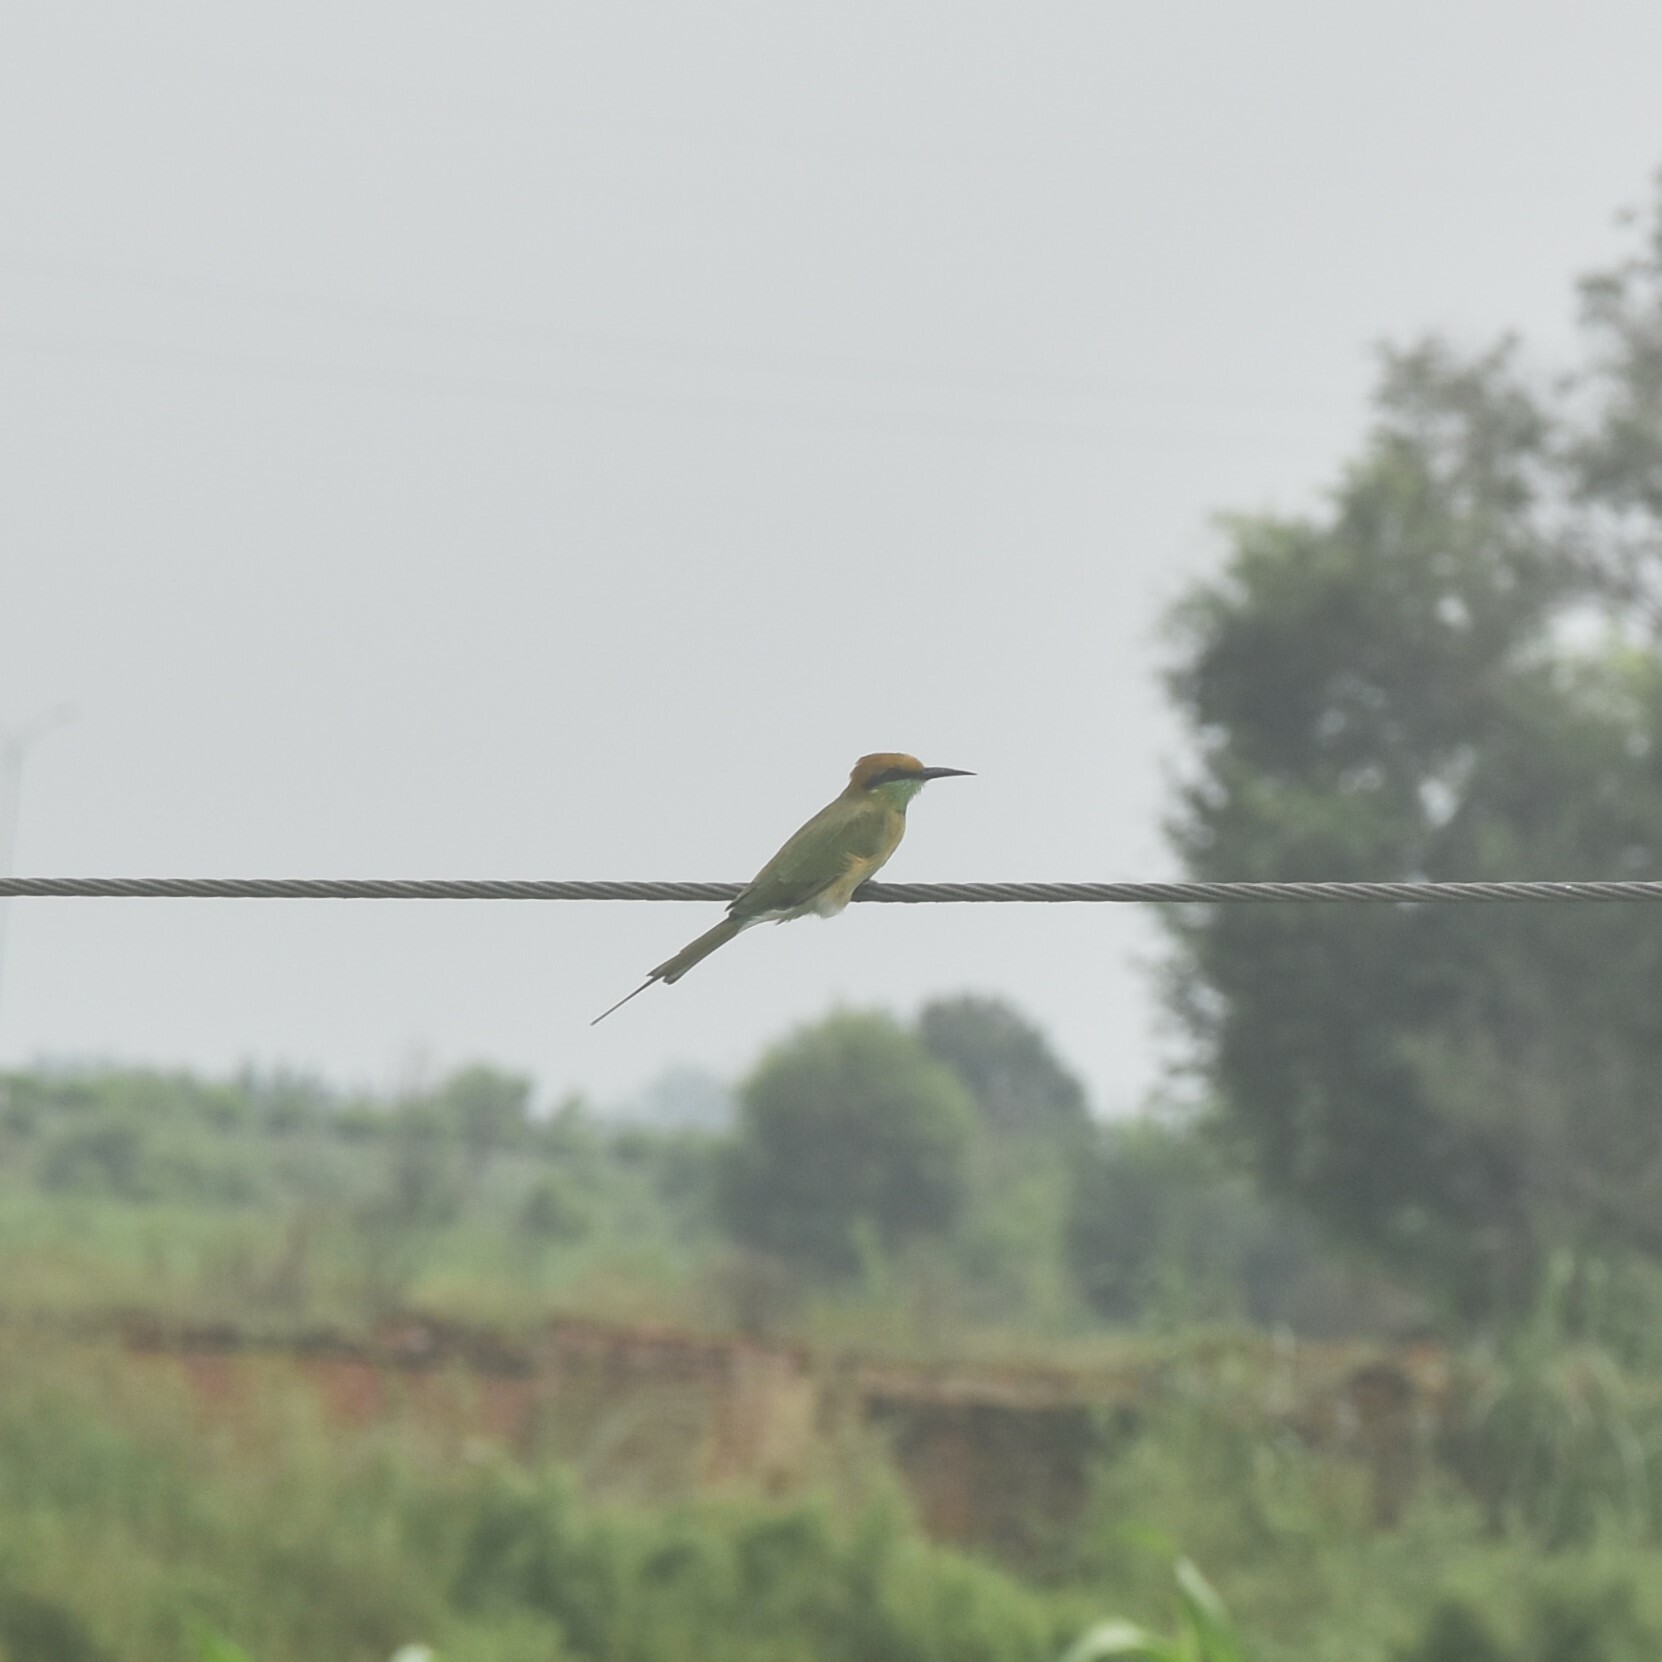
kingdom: Animalia
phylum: Chordata
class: Aves
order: Coraciiformes
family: Meropidae
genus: Merops
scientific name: Merops orientalis
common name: Green bee-eater
